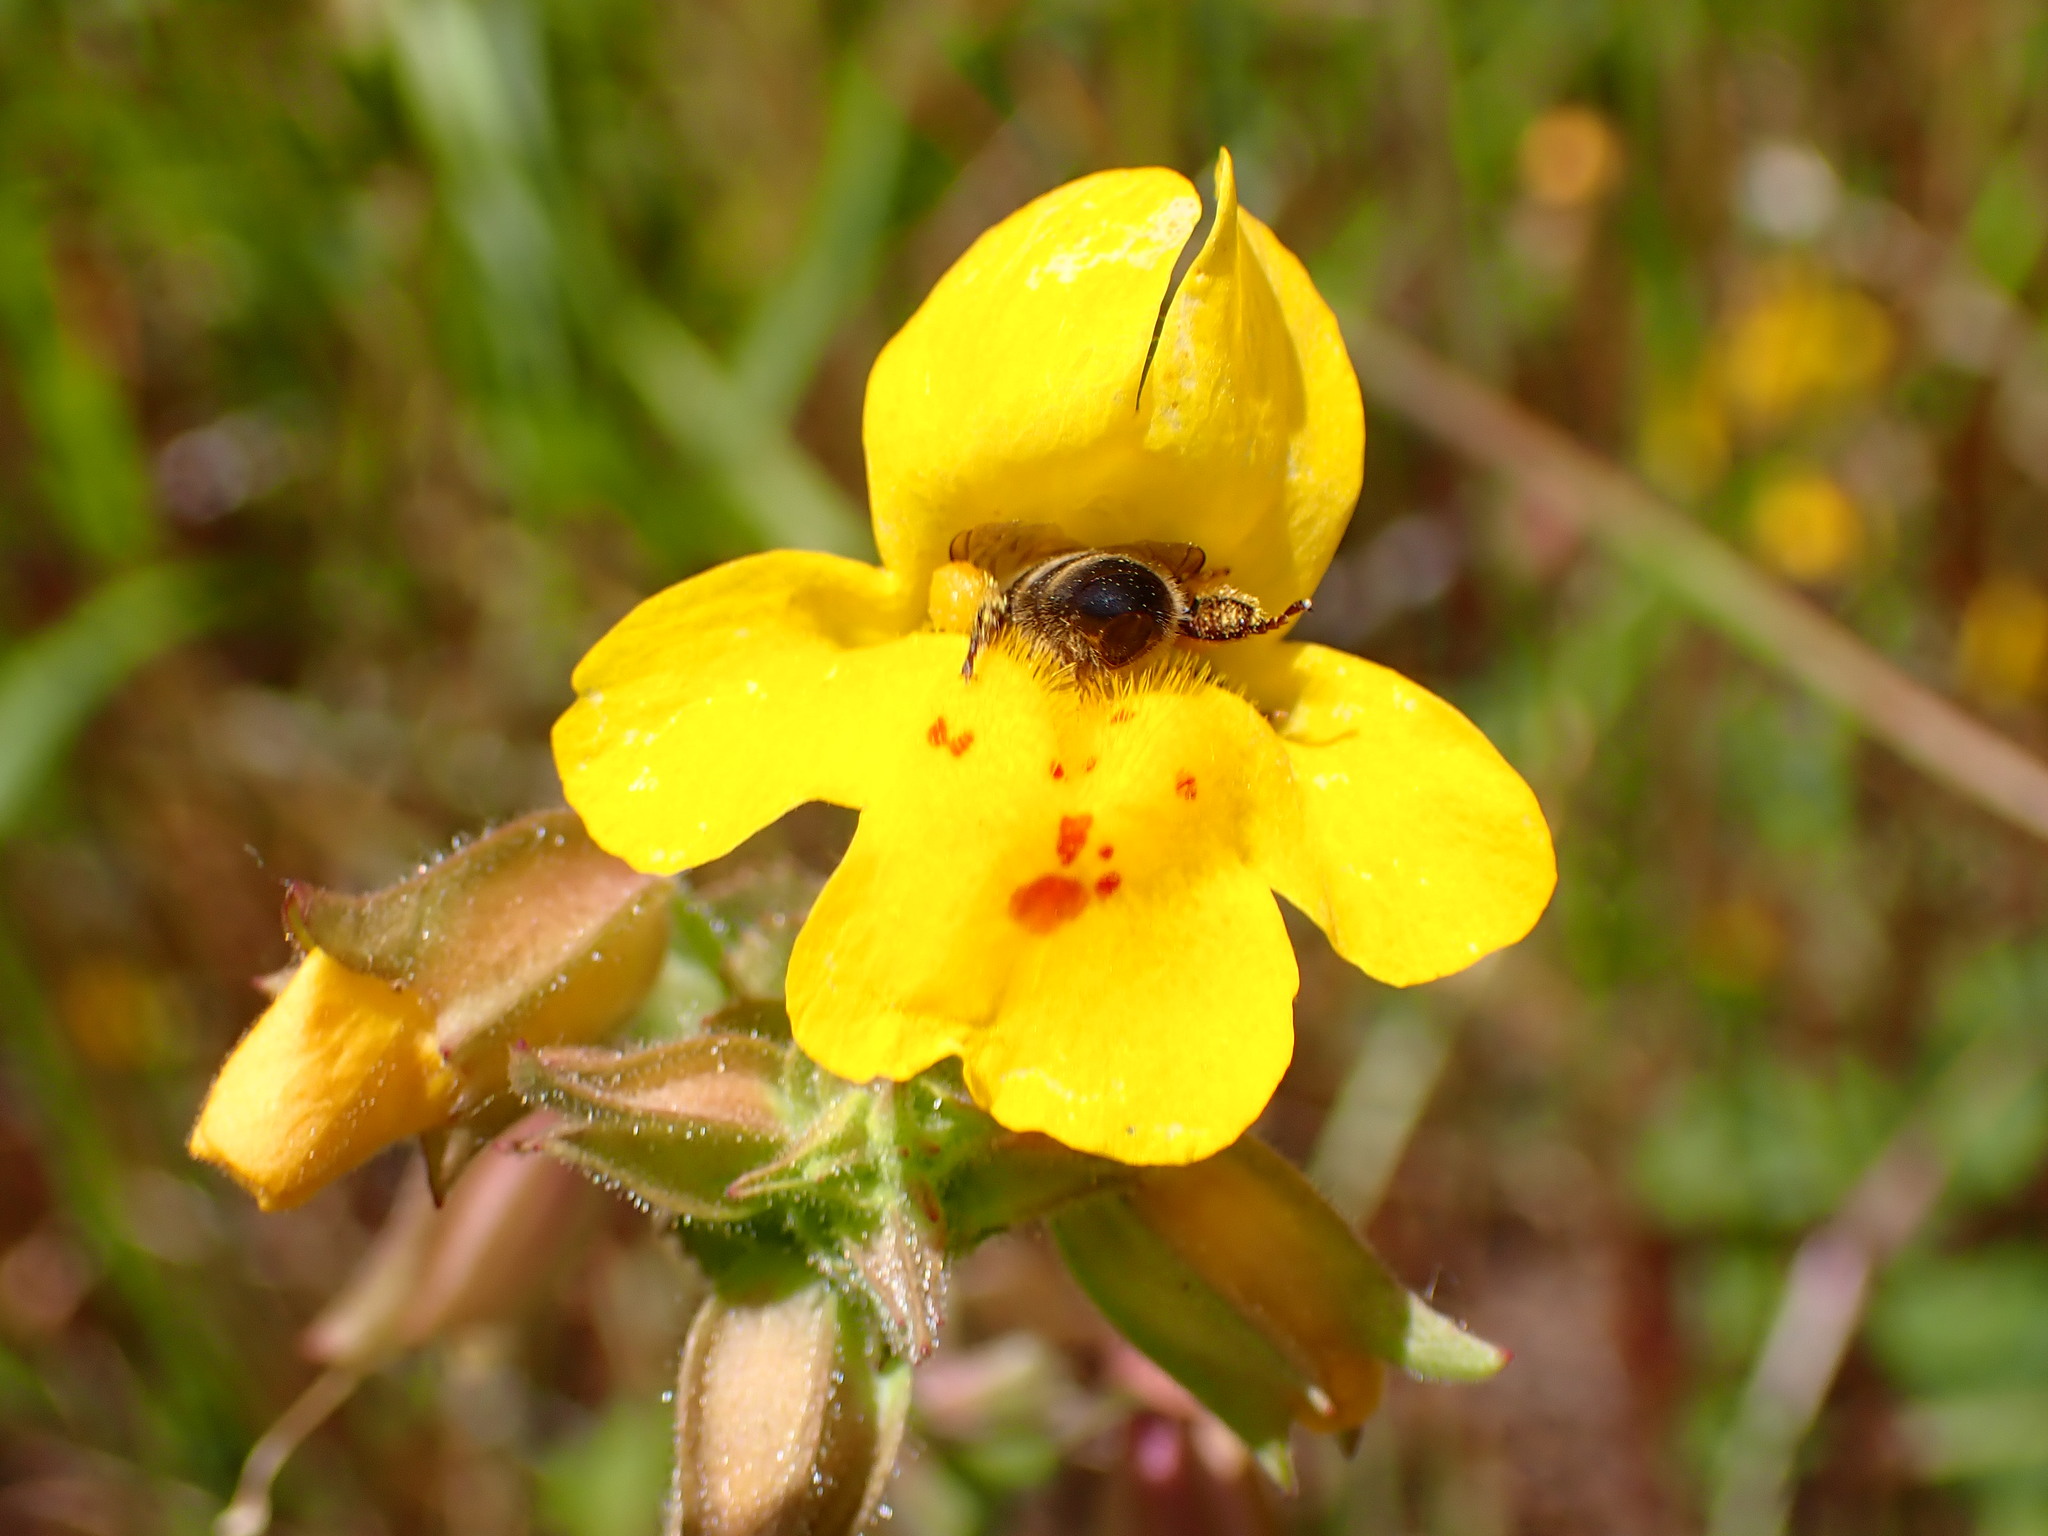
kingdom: Plantae
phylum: Tracheophyta
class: Magnoliopsida
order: Lamiales
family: Phrymaceae
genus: Erythranthe
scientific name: Erythranthe guttata
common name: Monkeyflower
